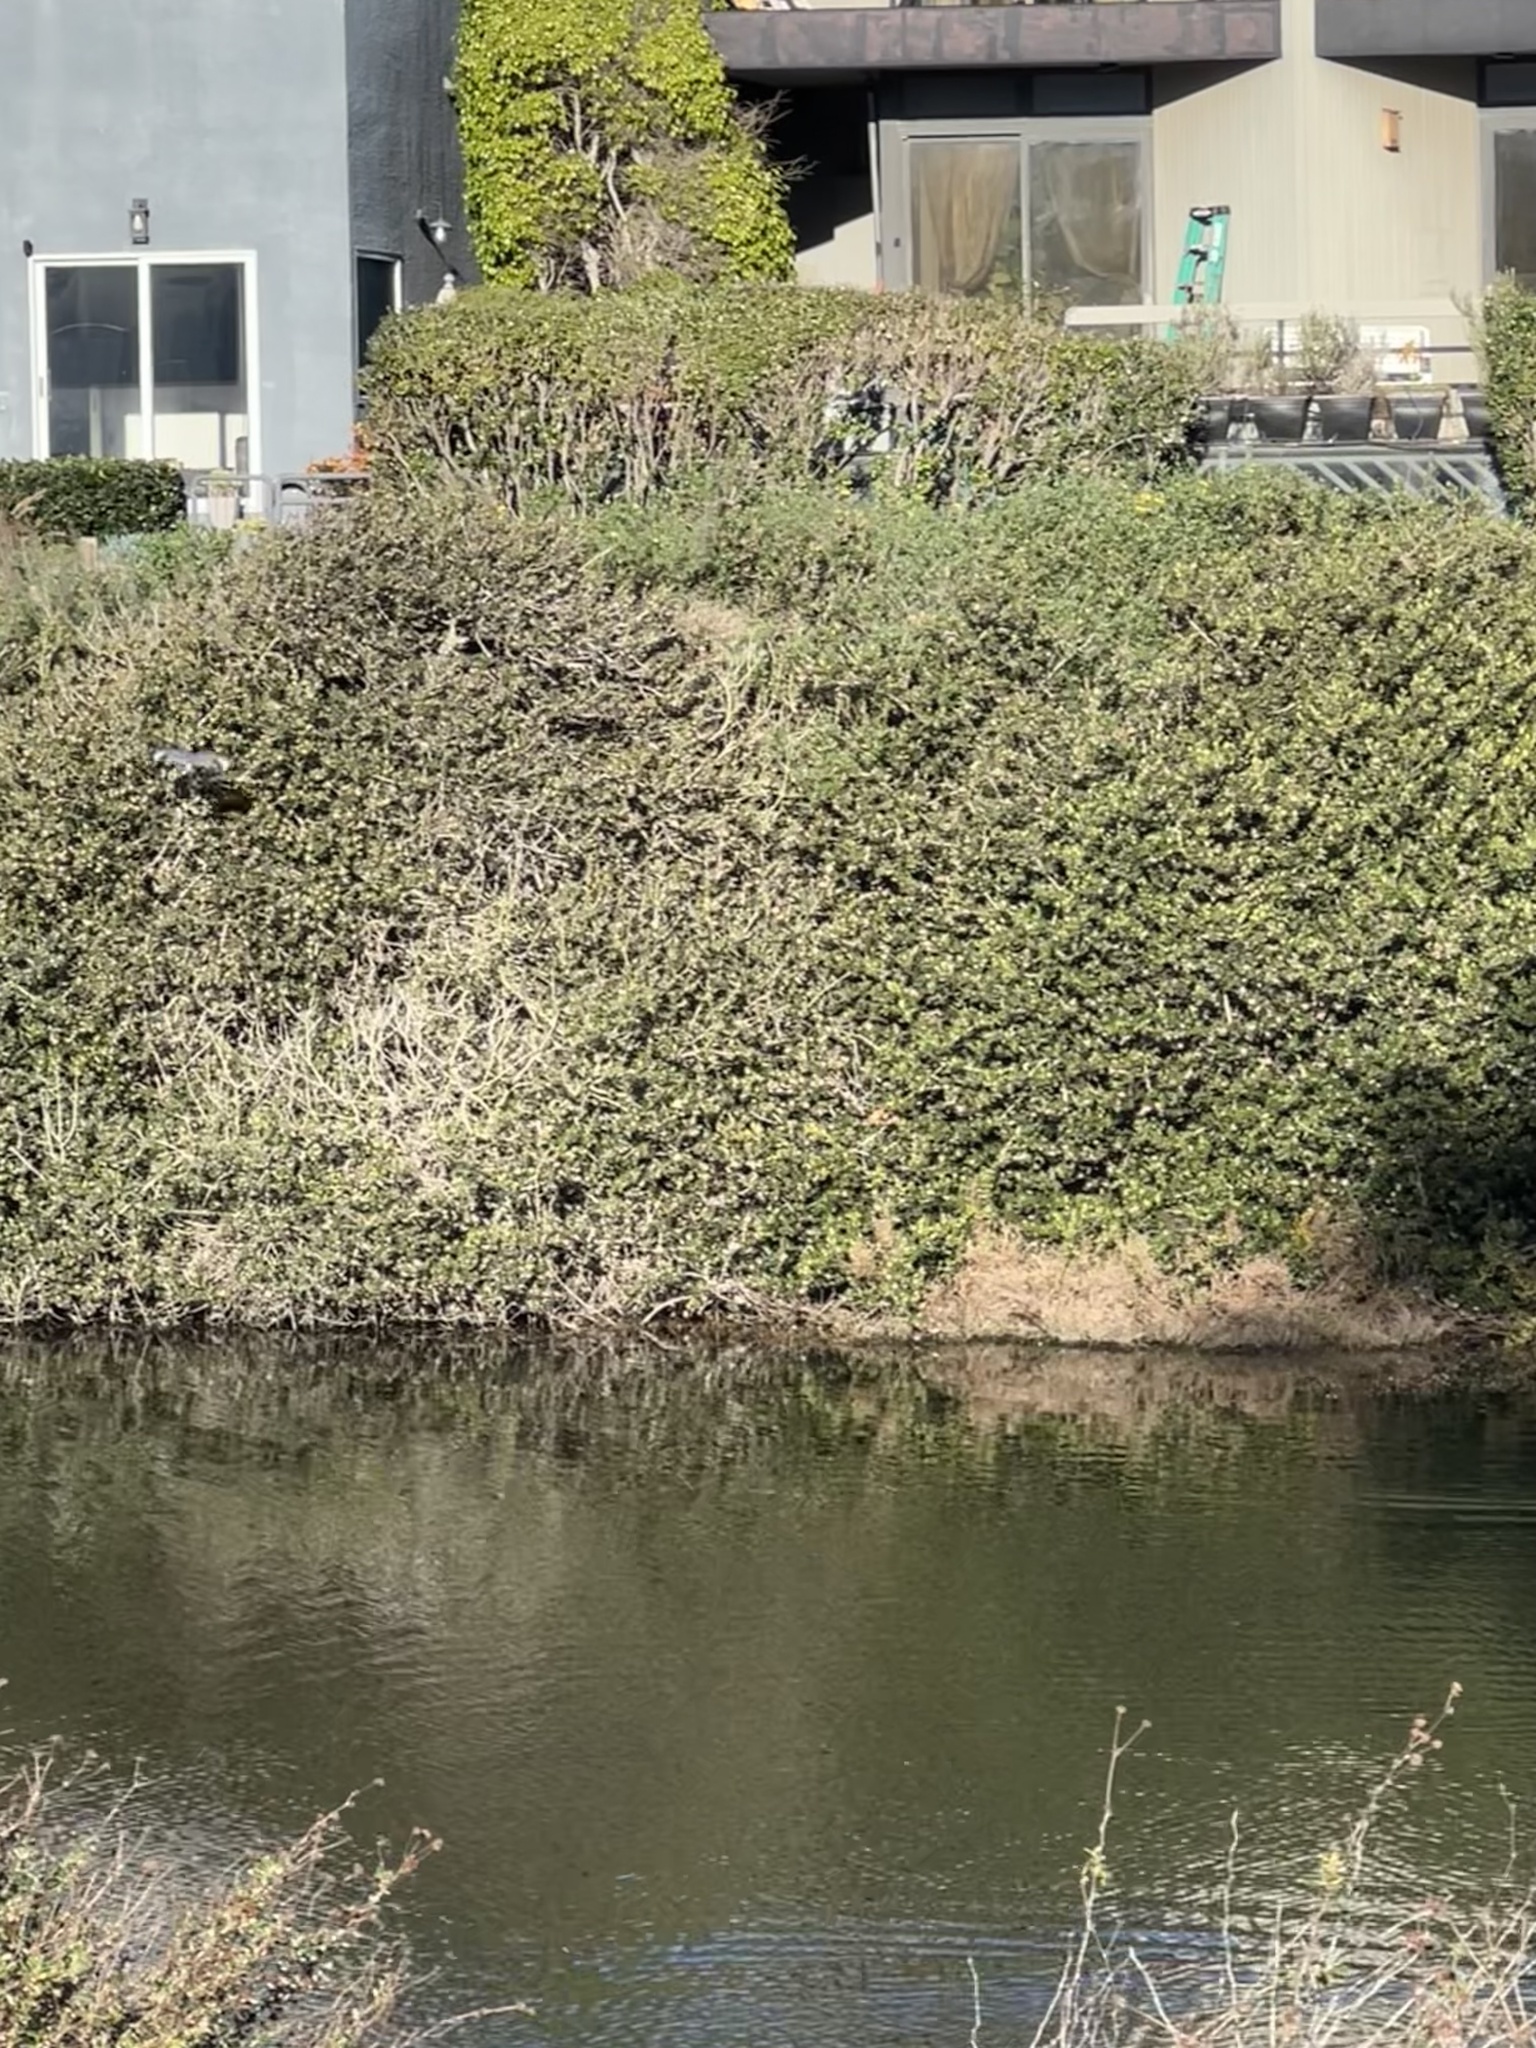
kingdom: Animalia
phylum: Chordata
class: Aves
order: Coraciiformes
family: Alcedinidae
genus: Megaceryle
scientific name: Megaceryle alcyon
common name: Belted kingfisher
